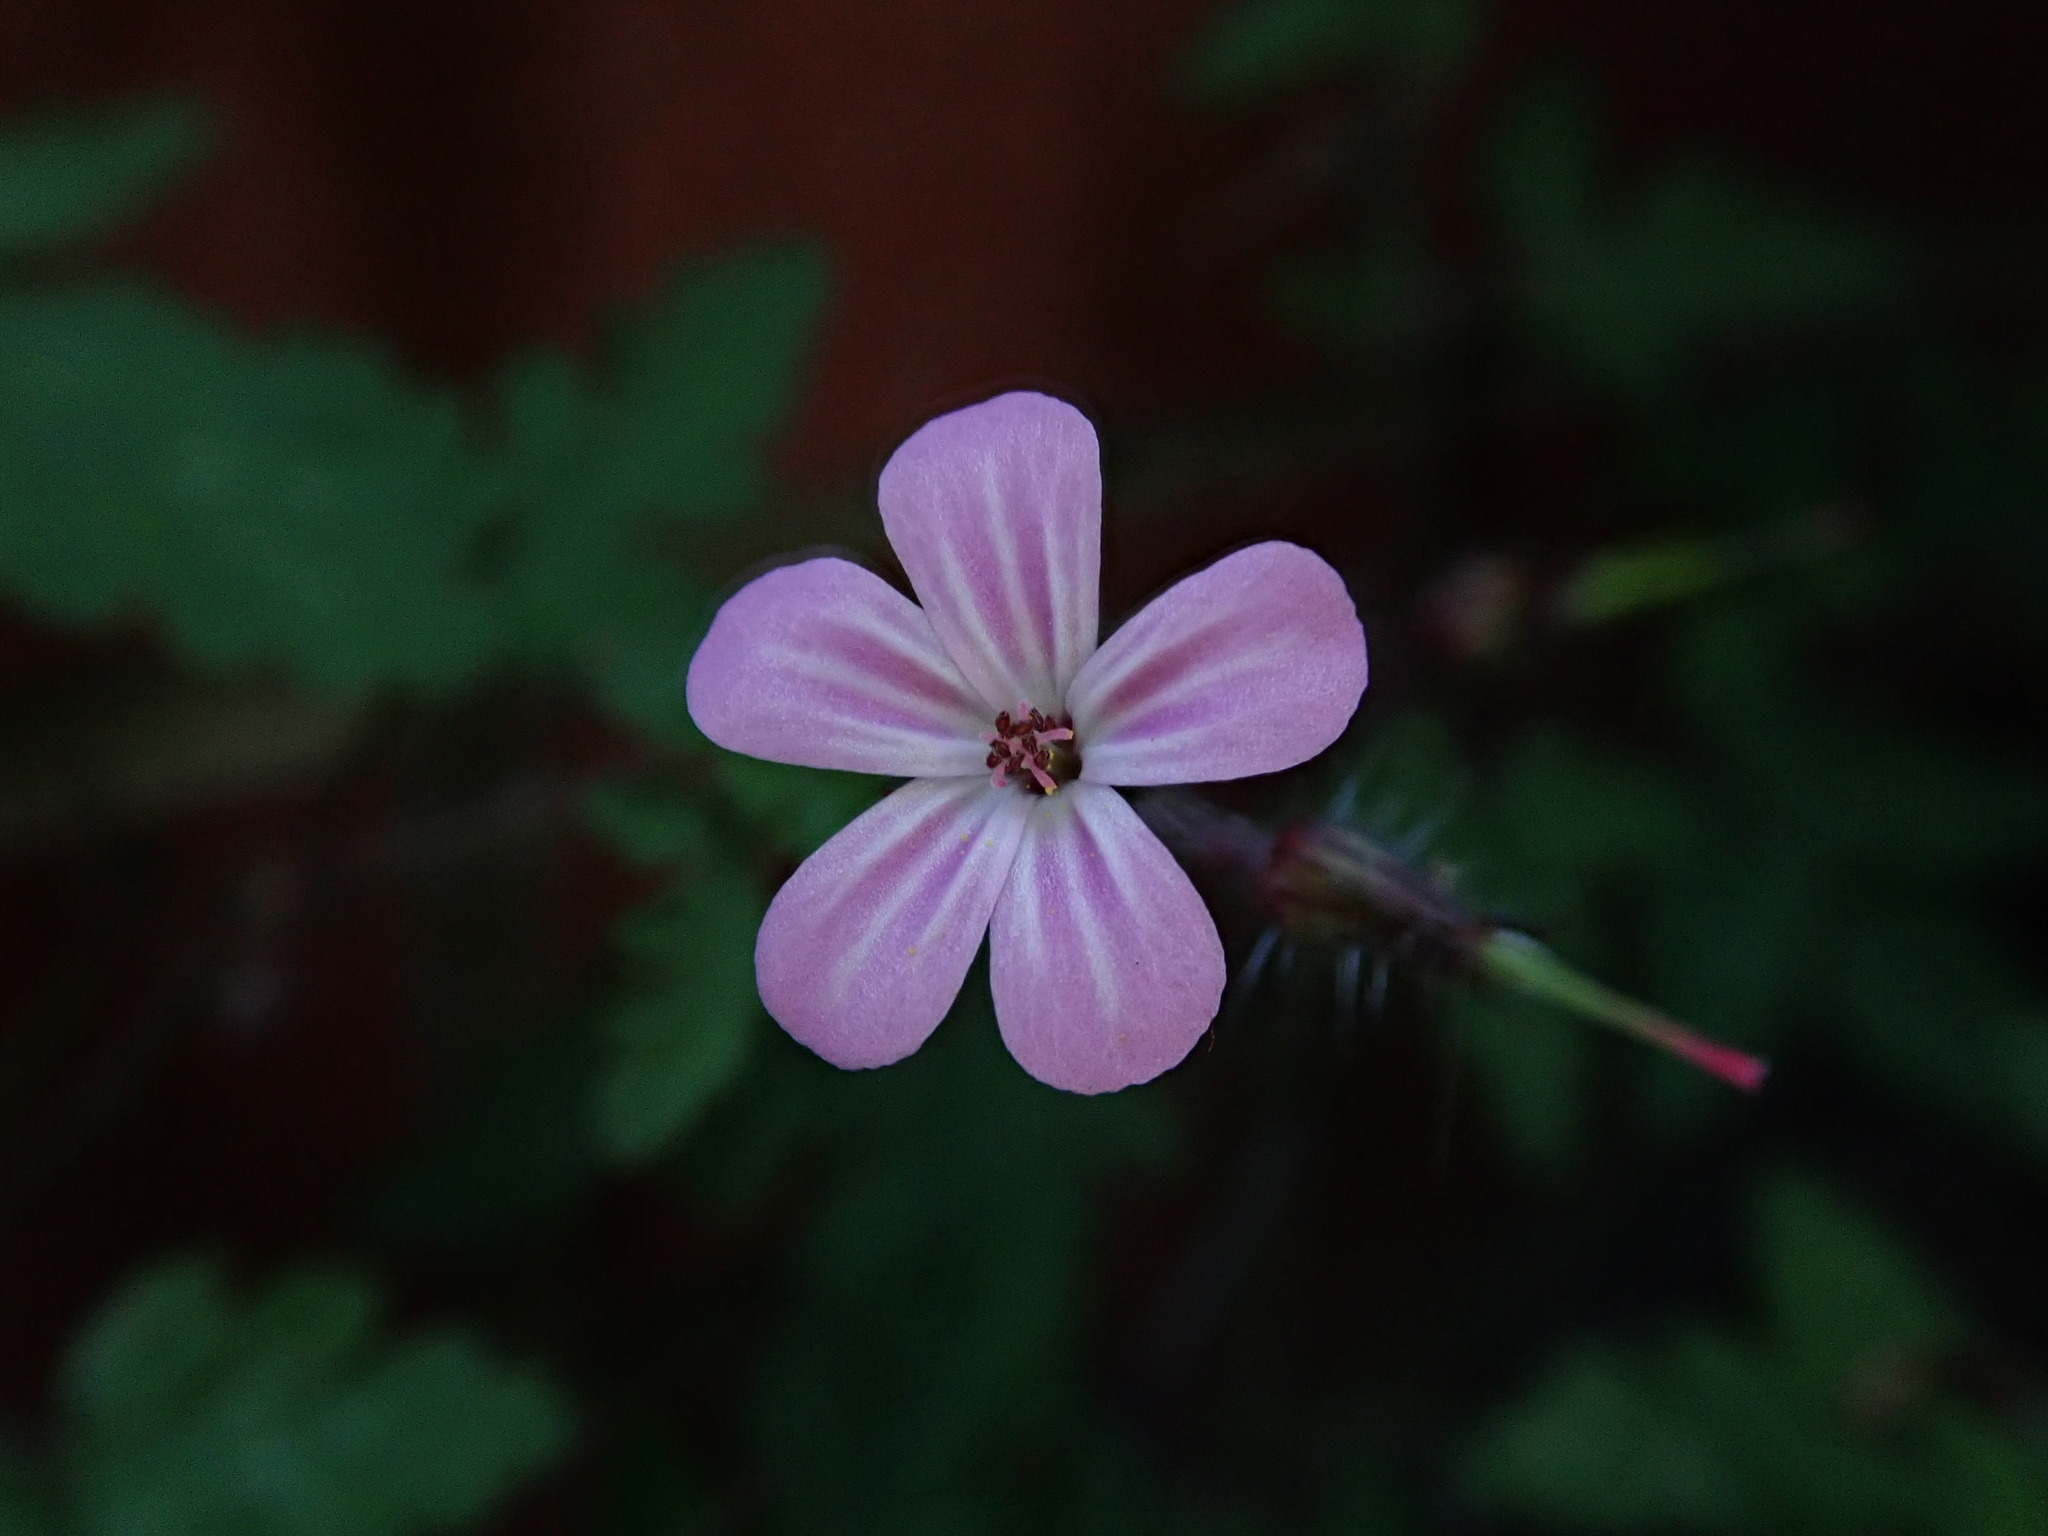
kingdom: Plantae
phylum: Tracheophyta
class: Magnoliopsida
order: Geraniales
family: Geraniaceae
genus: Geranium
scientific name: Geranium robertianum
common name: Herb-robert
